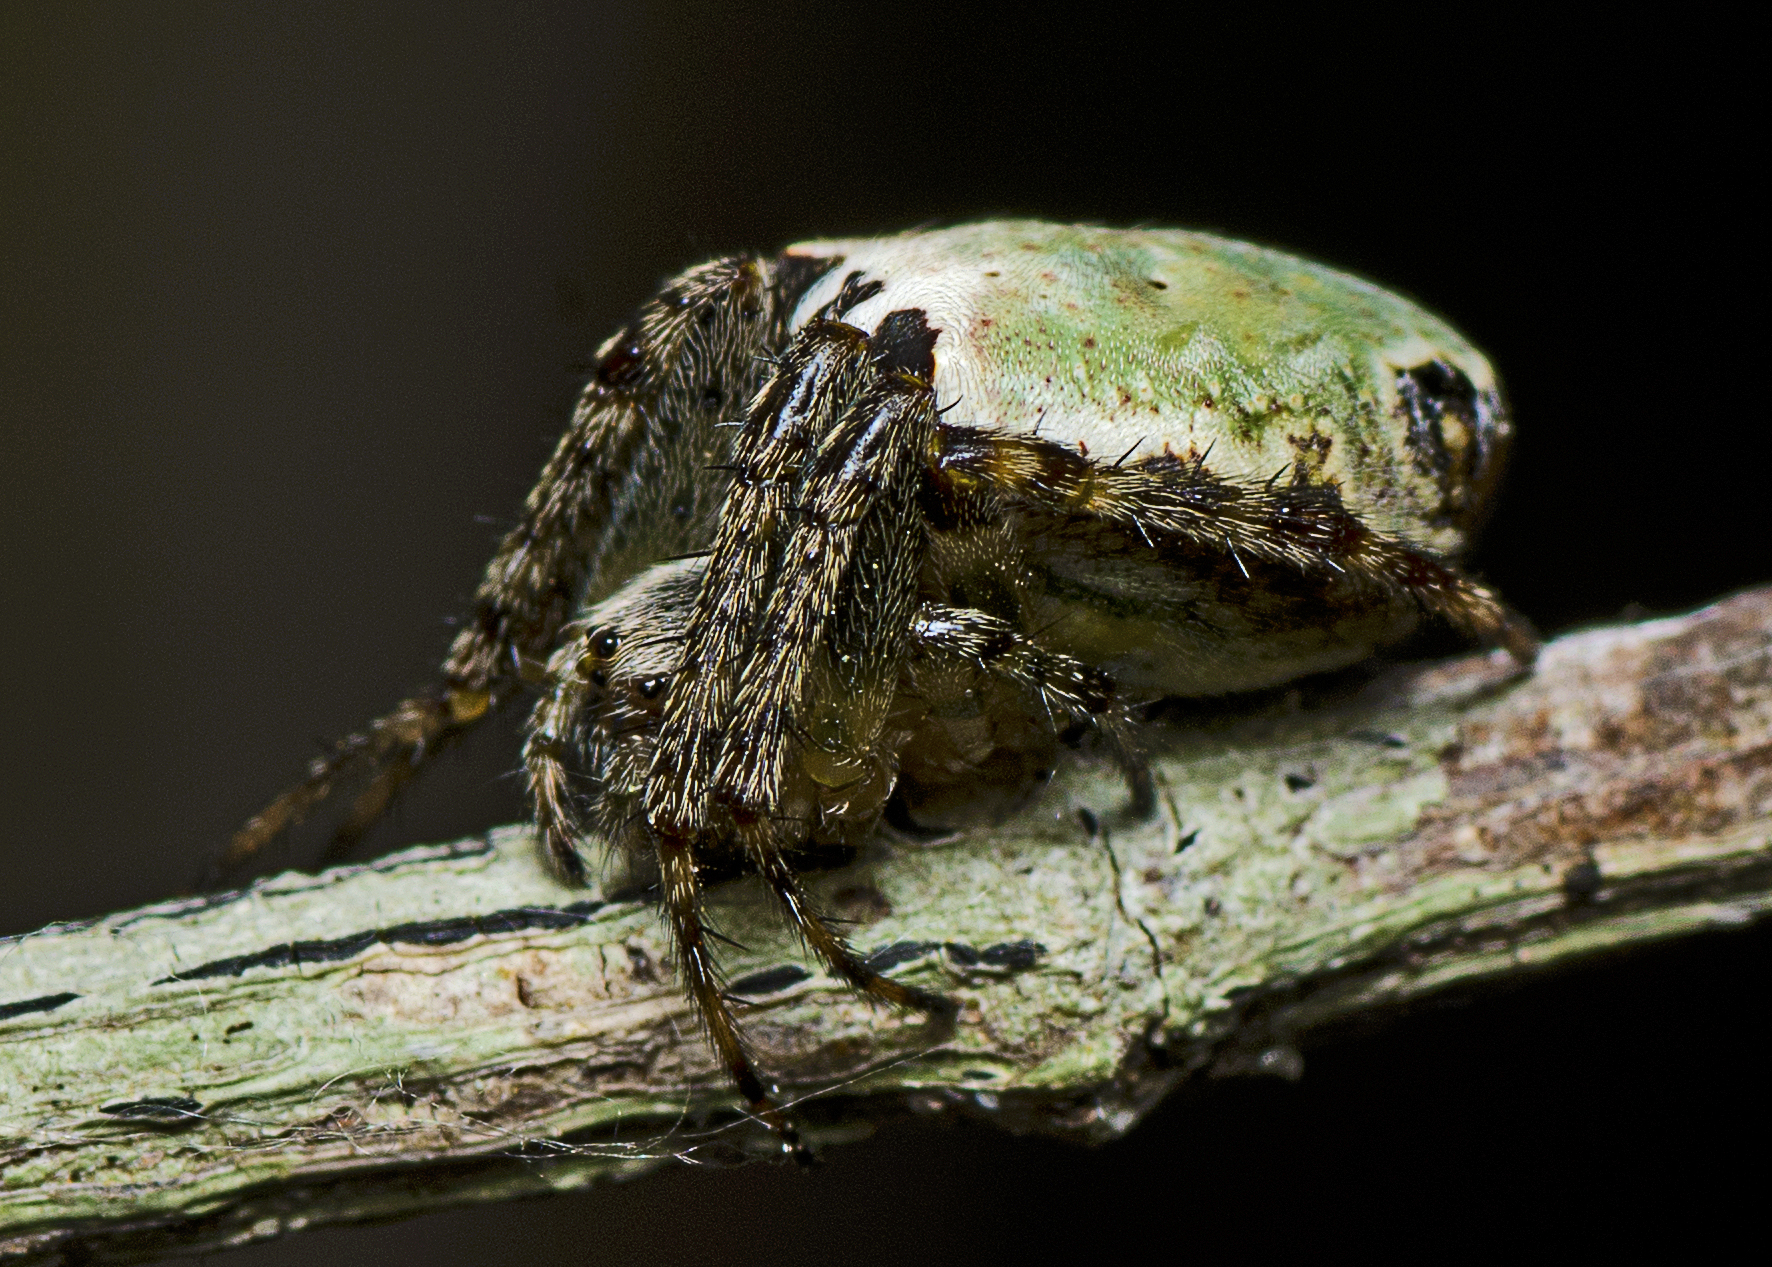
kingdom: Animalia
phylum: Arthropoda
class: Arachnida
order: Araneae
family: Araneidae
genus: Plebs
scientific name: Plebs eburnus
